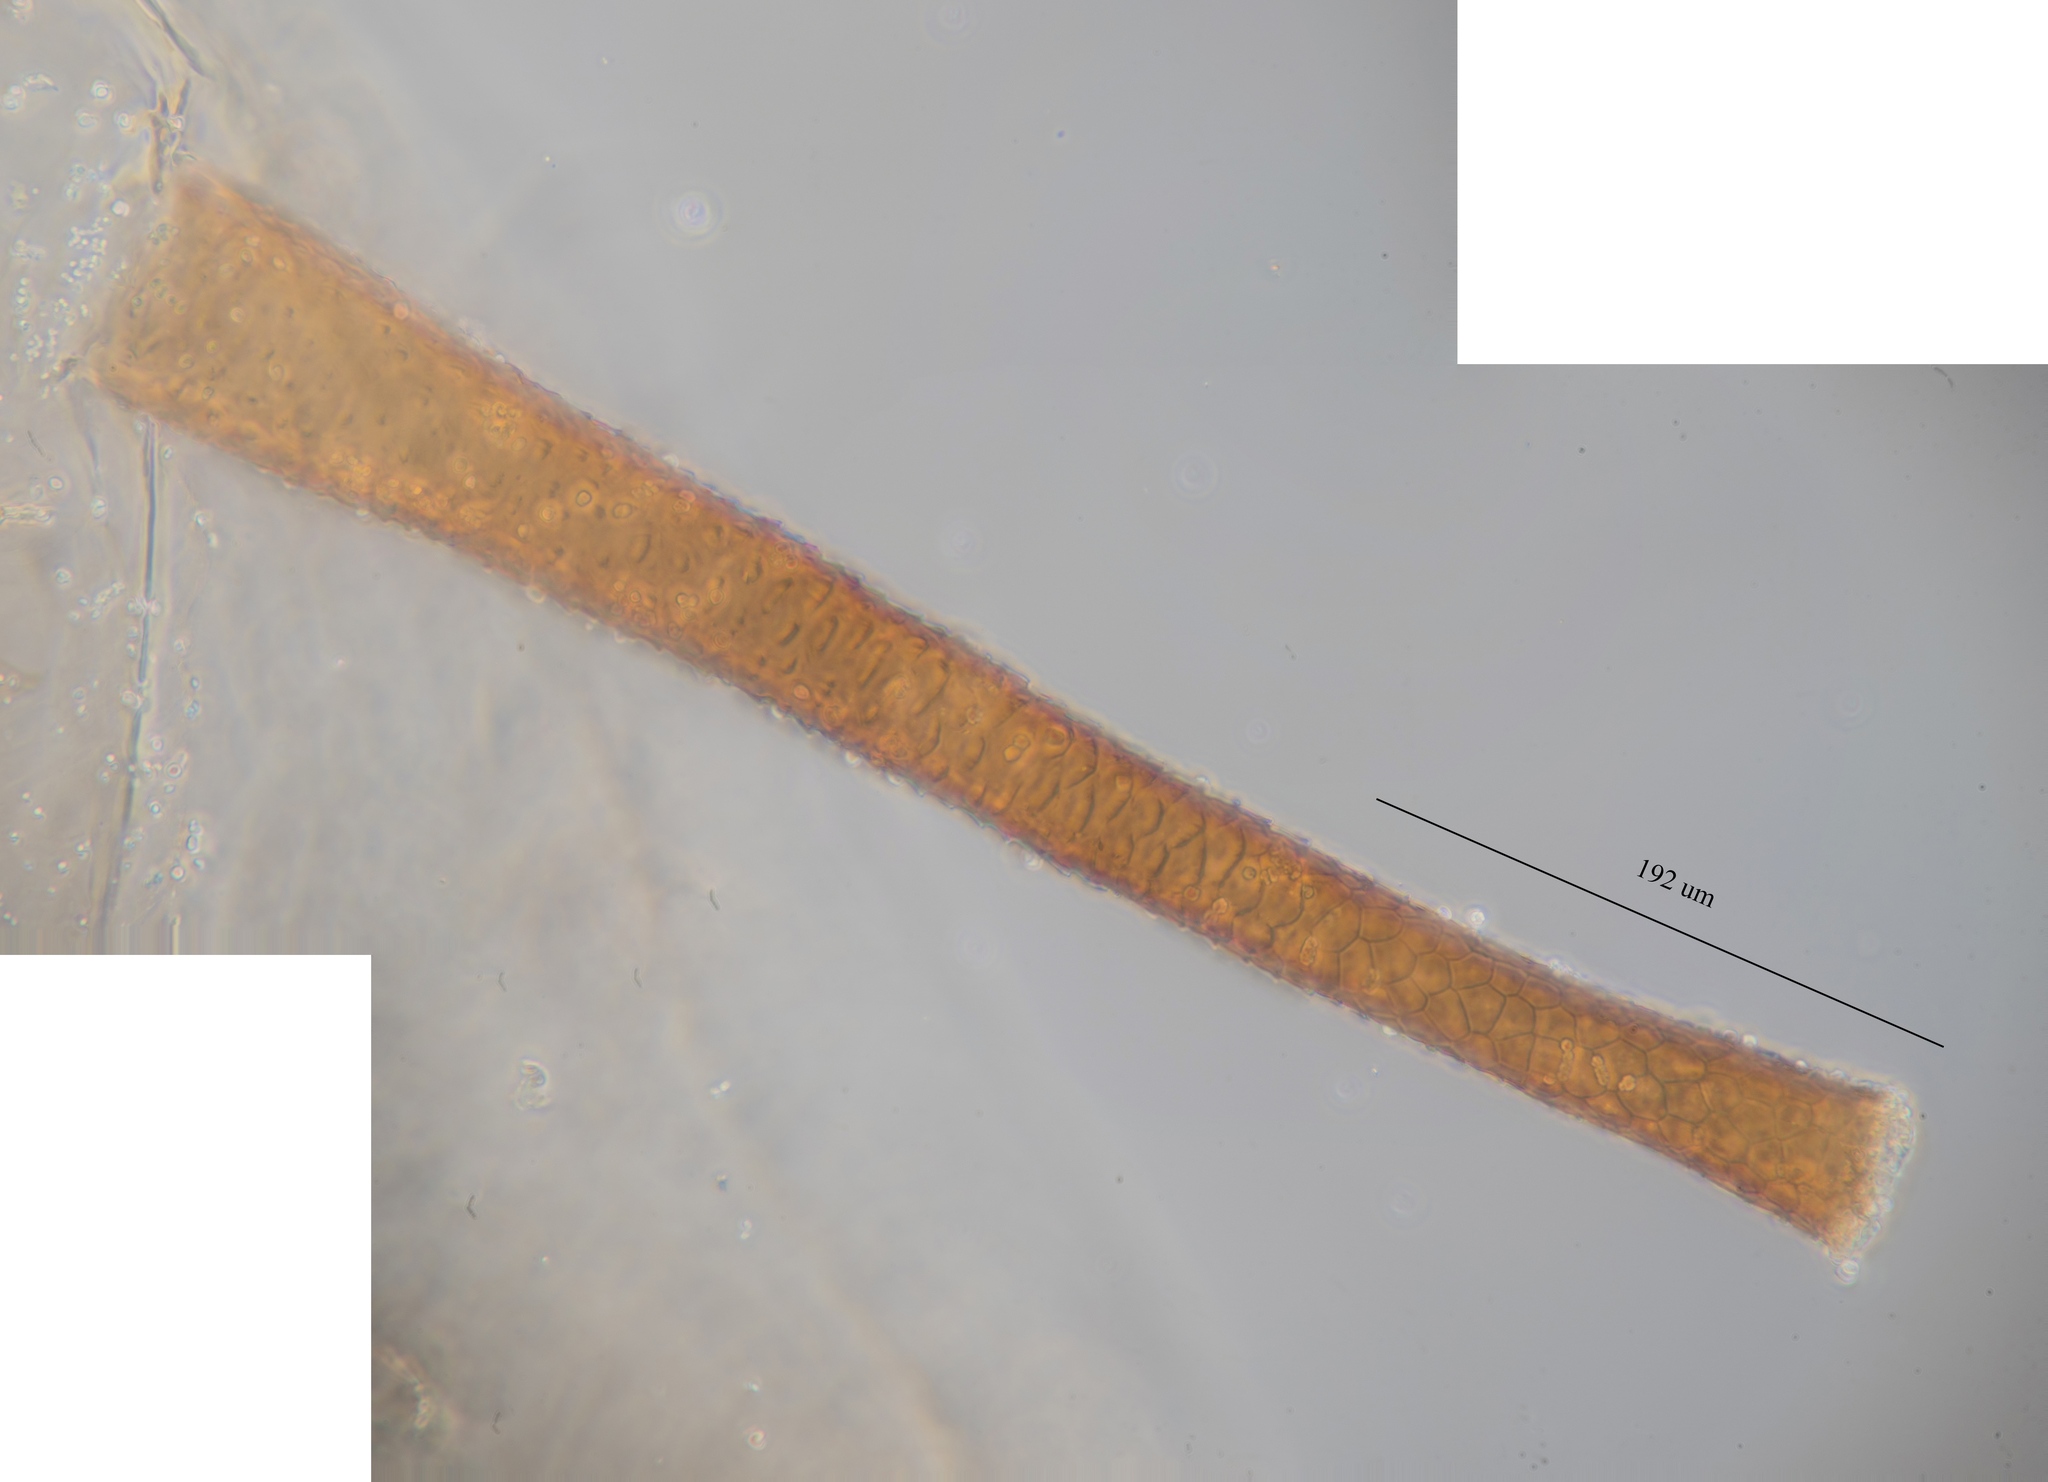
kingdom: Animalia
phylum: Arthropoda
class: Insecta
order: Hemiptera
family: Aphididae
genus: Macrosiphoniella
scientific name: Macrosiphoniella glabrum
